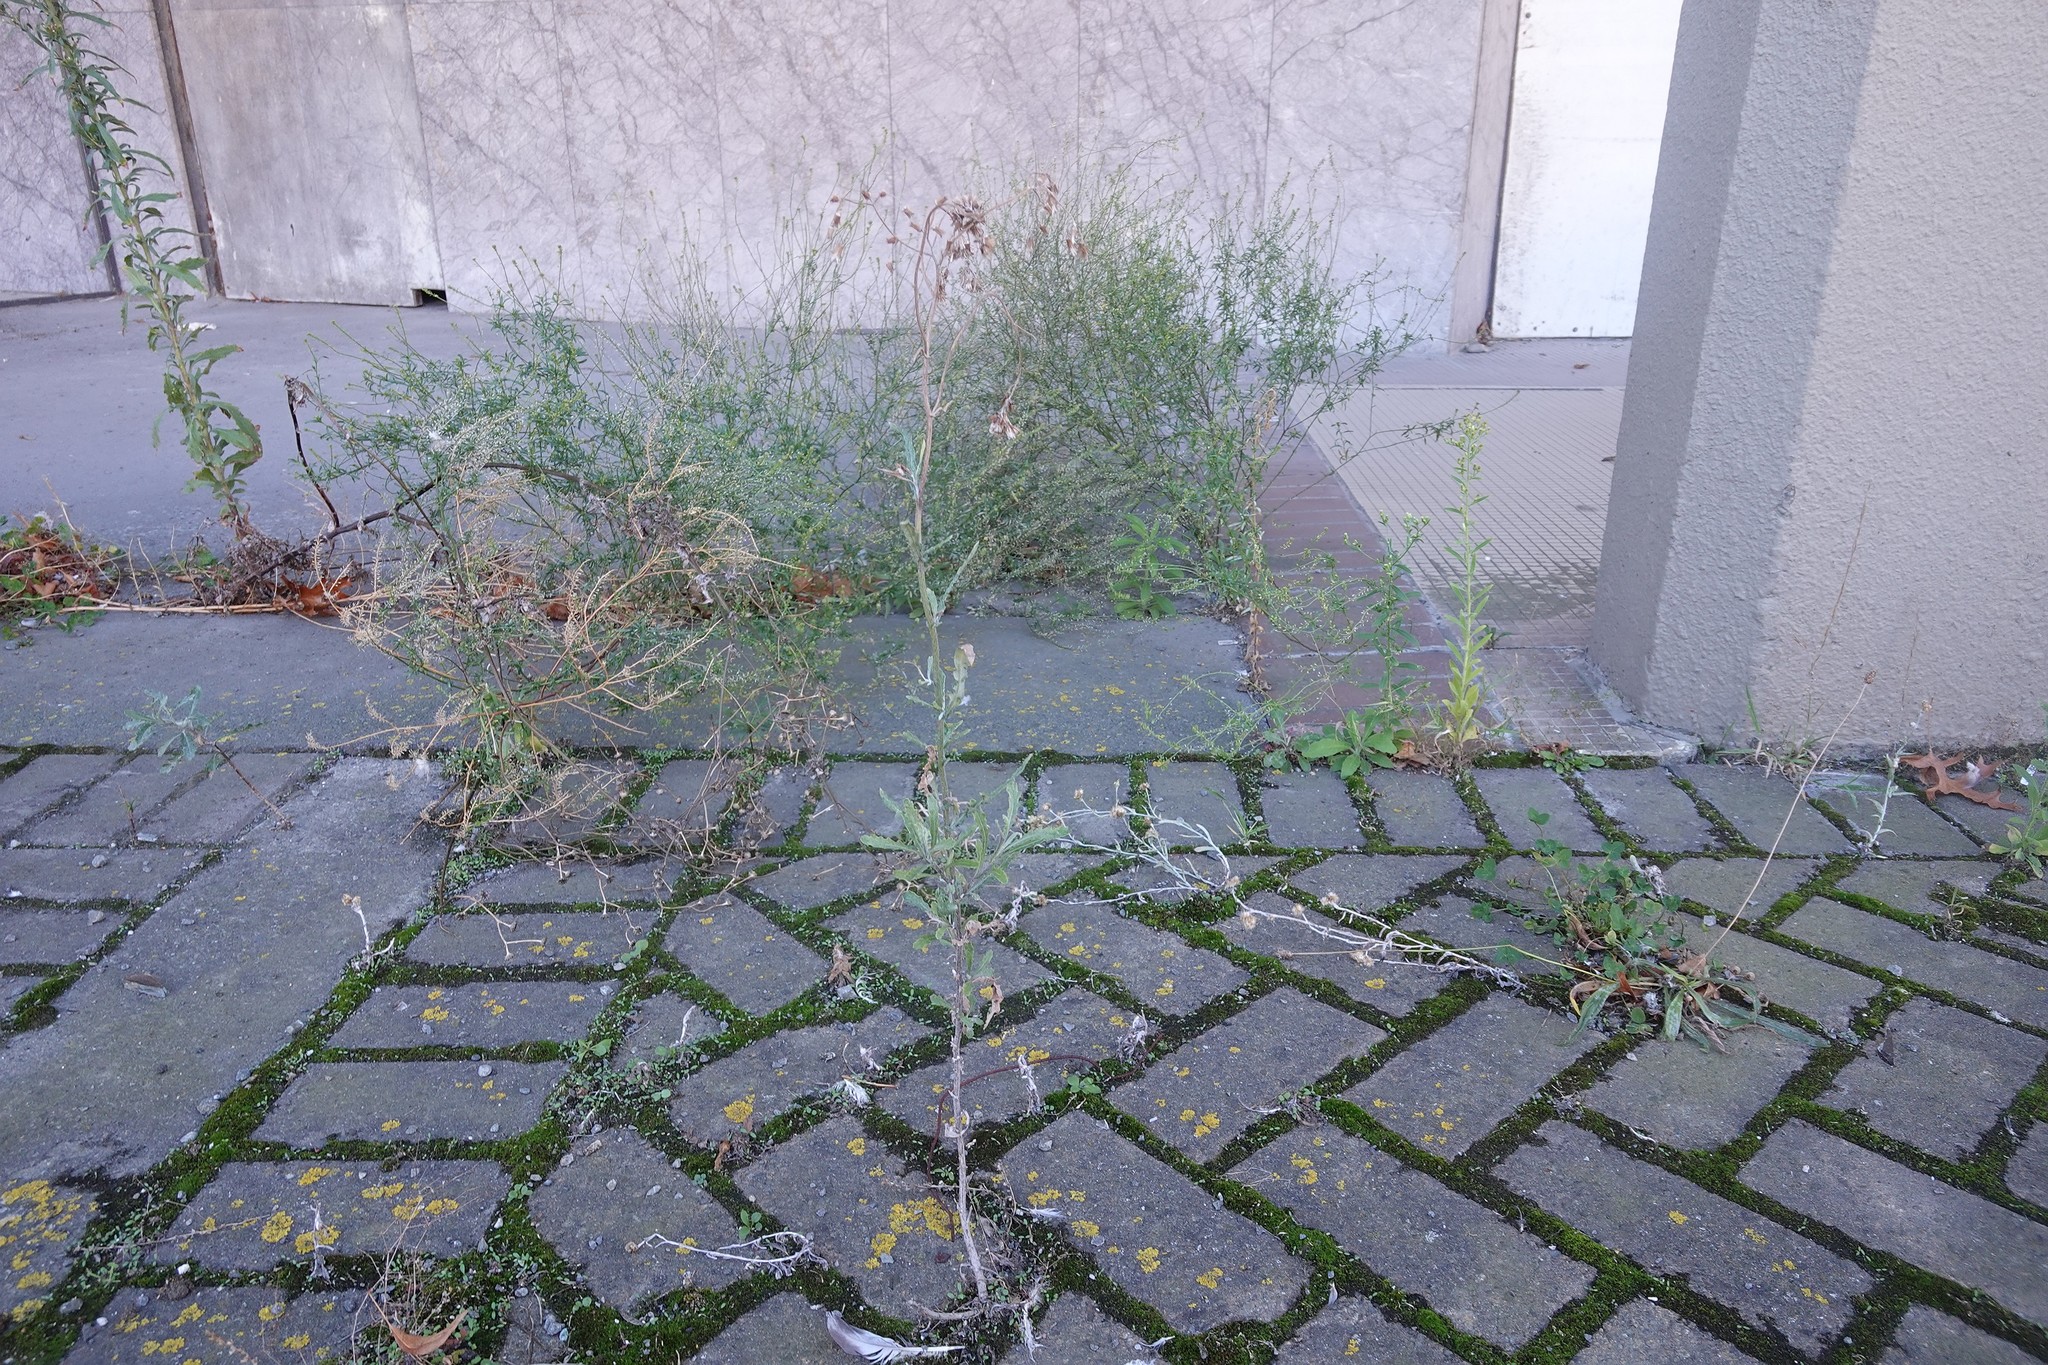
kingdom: Plantae
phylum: Tracheophyta
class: Magnoliopsida
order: Asterales
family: Asteraceae
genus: Senecio
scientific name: Senecio glomeratus
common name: Cutleaf burnweed
